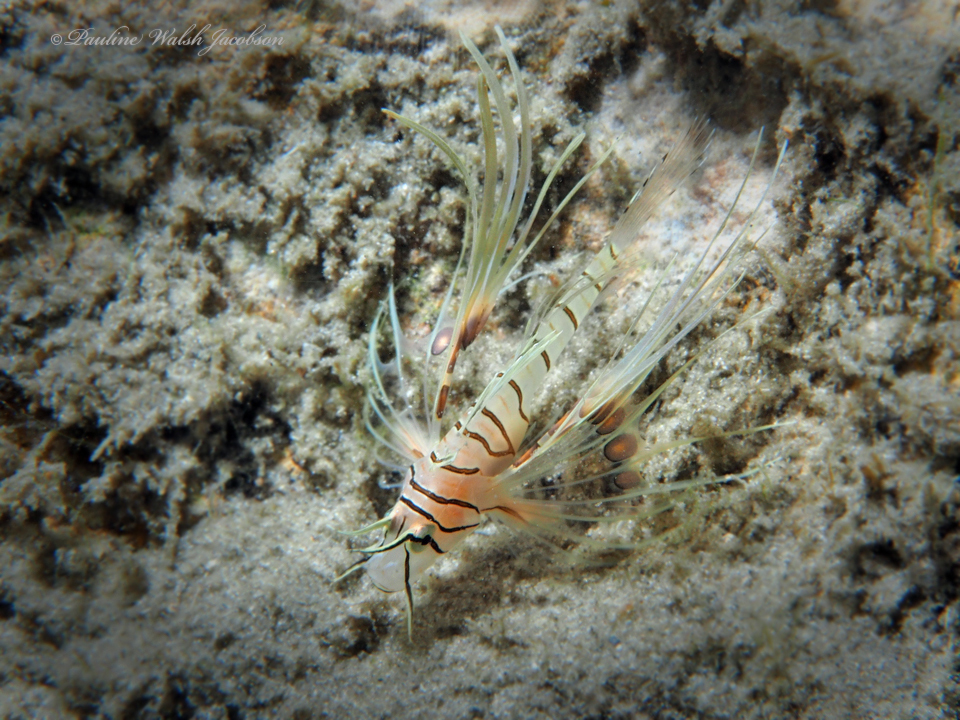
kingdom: Animalia
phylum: Chordata
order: Scorpaeniformes
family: Scorpaenidae
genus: Pterois
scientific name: Pterois volitans
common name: Lionfish
